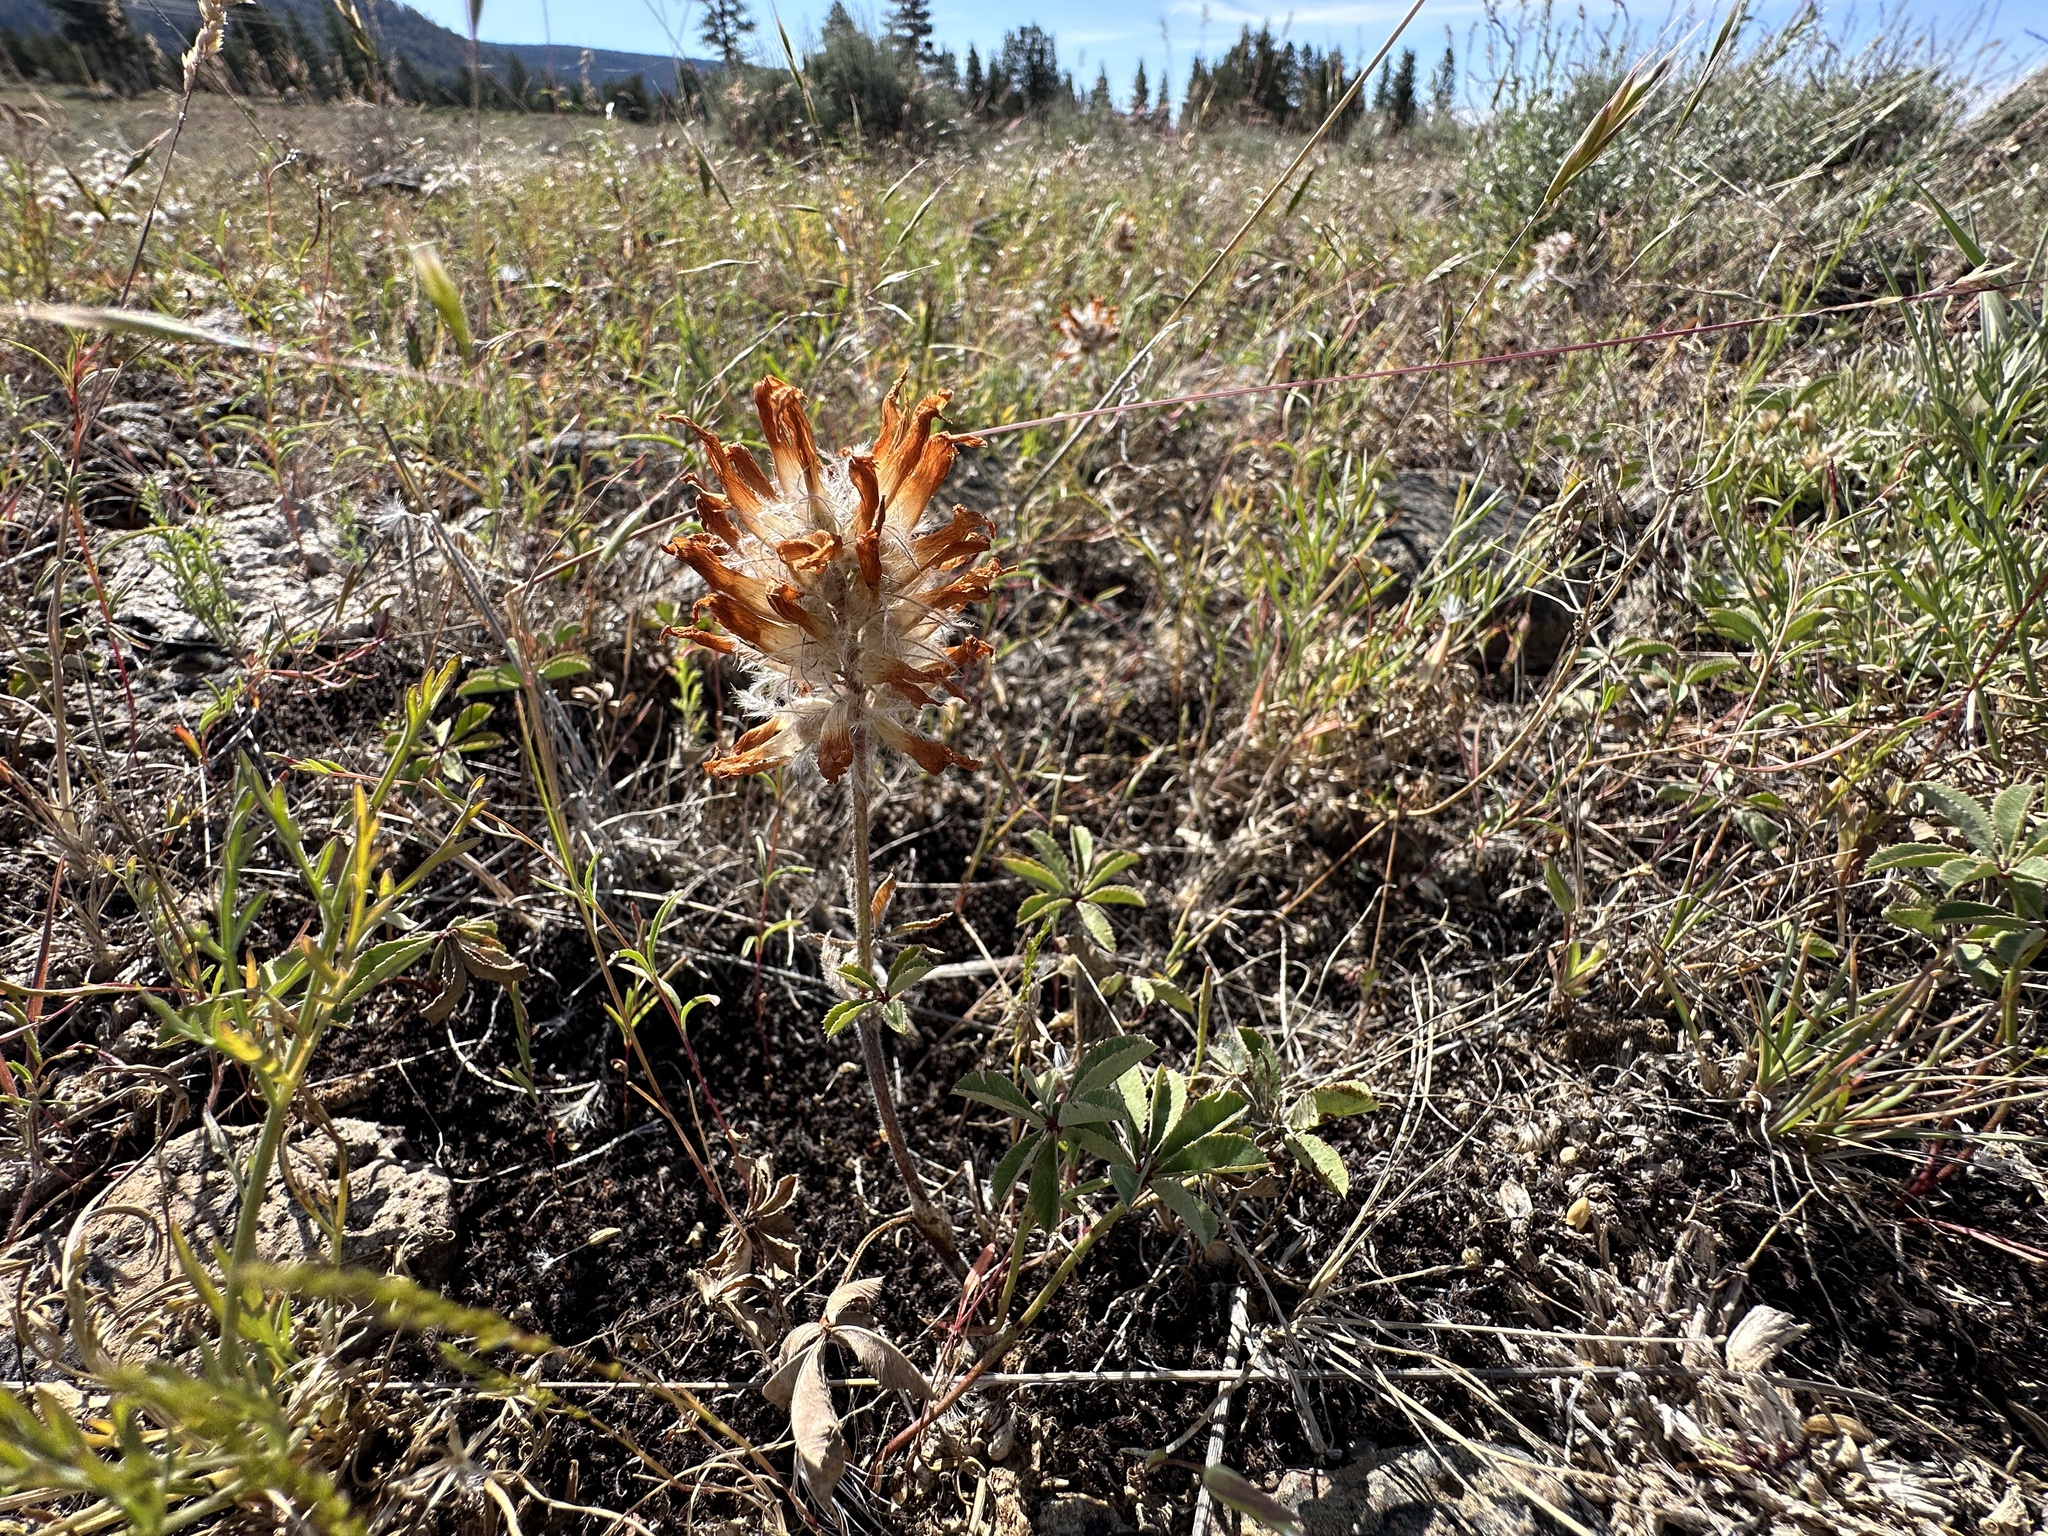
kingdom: Plantae
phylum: Tracheophyta
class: Magnoliopsida
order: Fabales
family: Fabaceae
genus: Trifolium
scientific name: Trifolium macrocephalum
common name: Large-head clover
